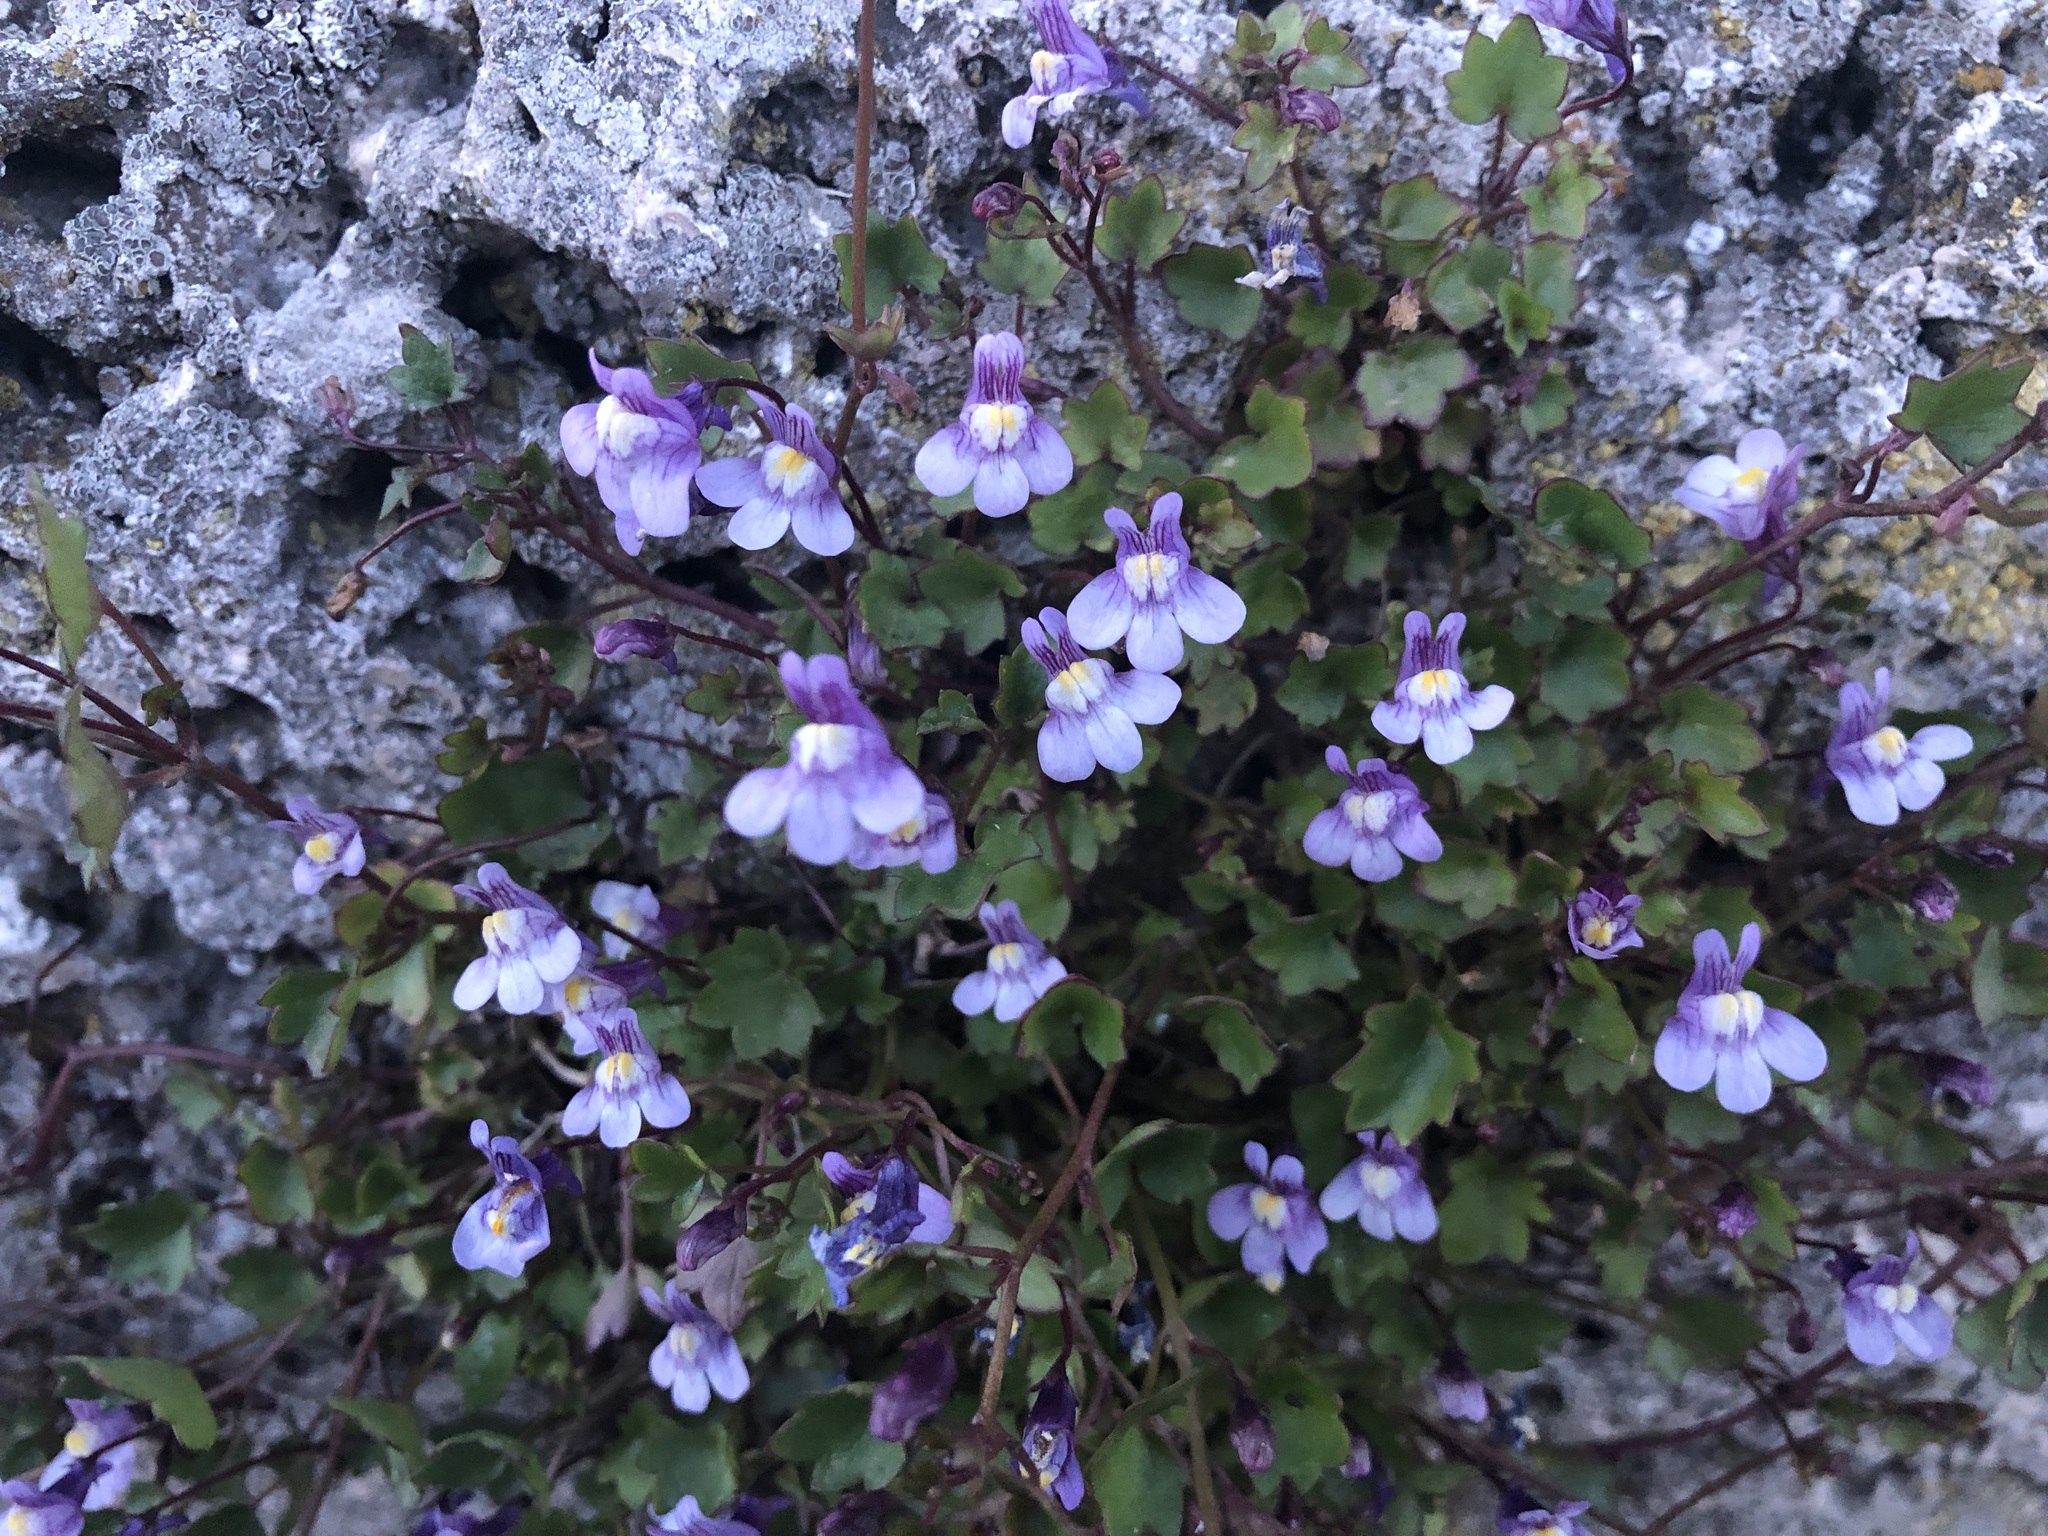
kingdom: Plantae
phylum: Tracheophyta
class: Magnoliopsida
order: Lamiales
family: Plantaginaceae
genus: Cymbalaria
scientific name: Cymbalaria muralis
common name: Ivy-leaved toadflax
